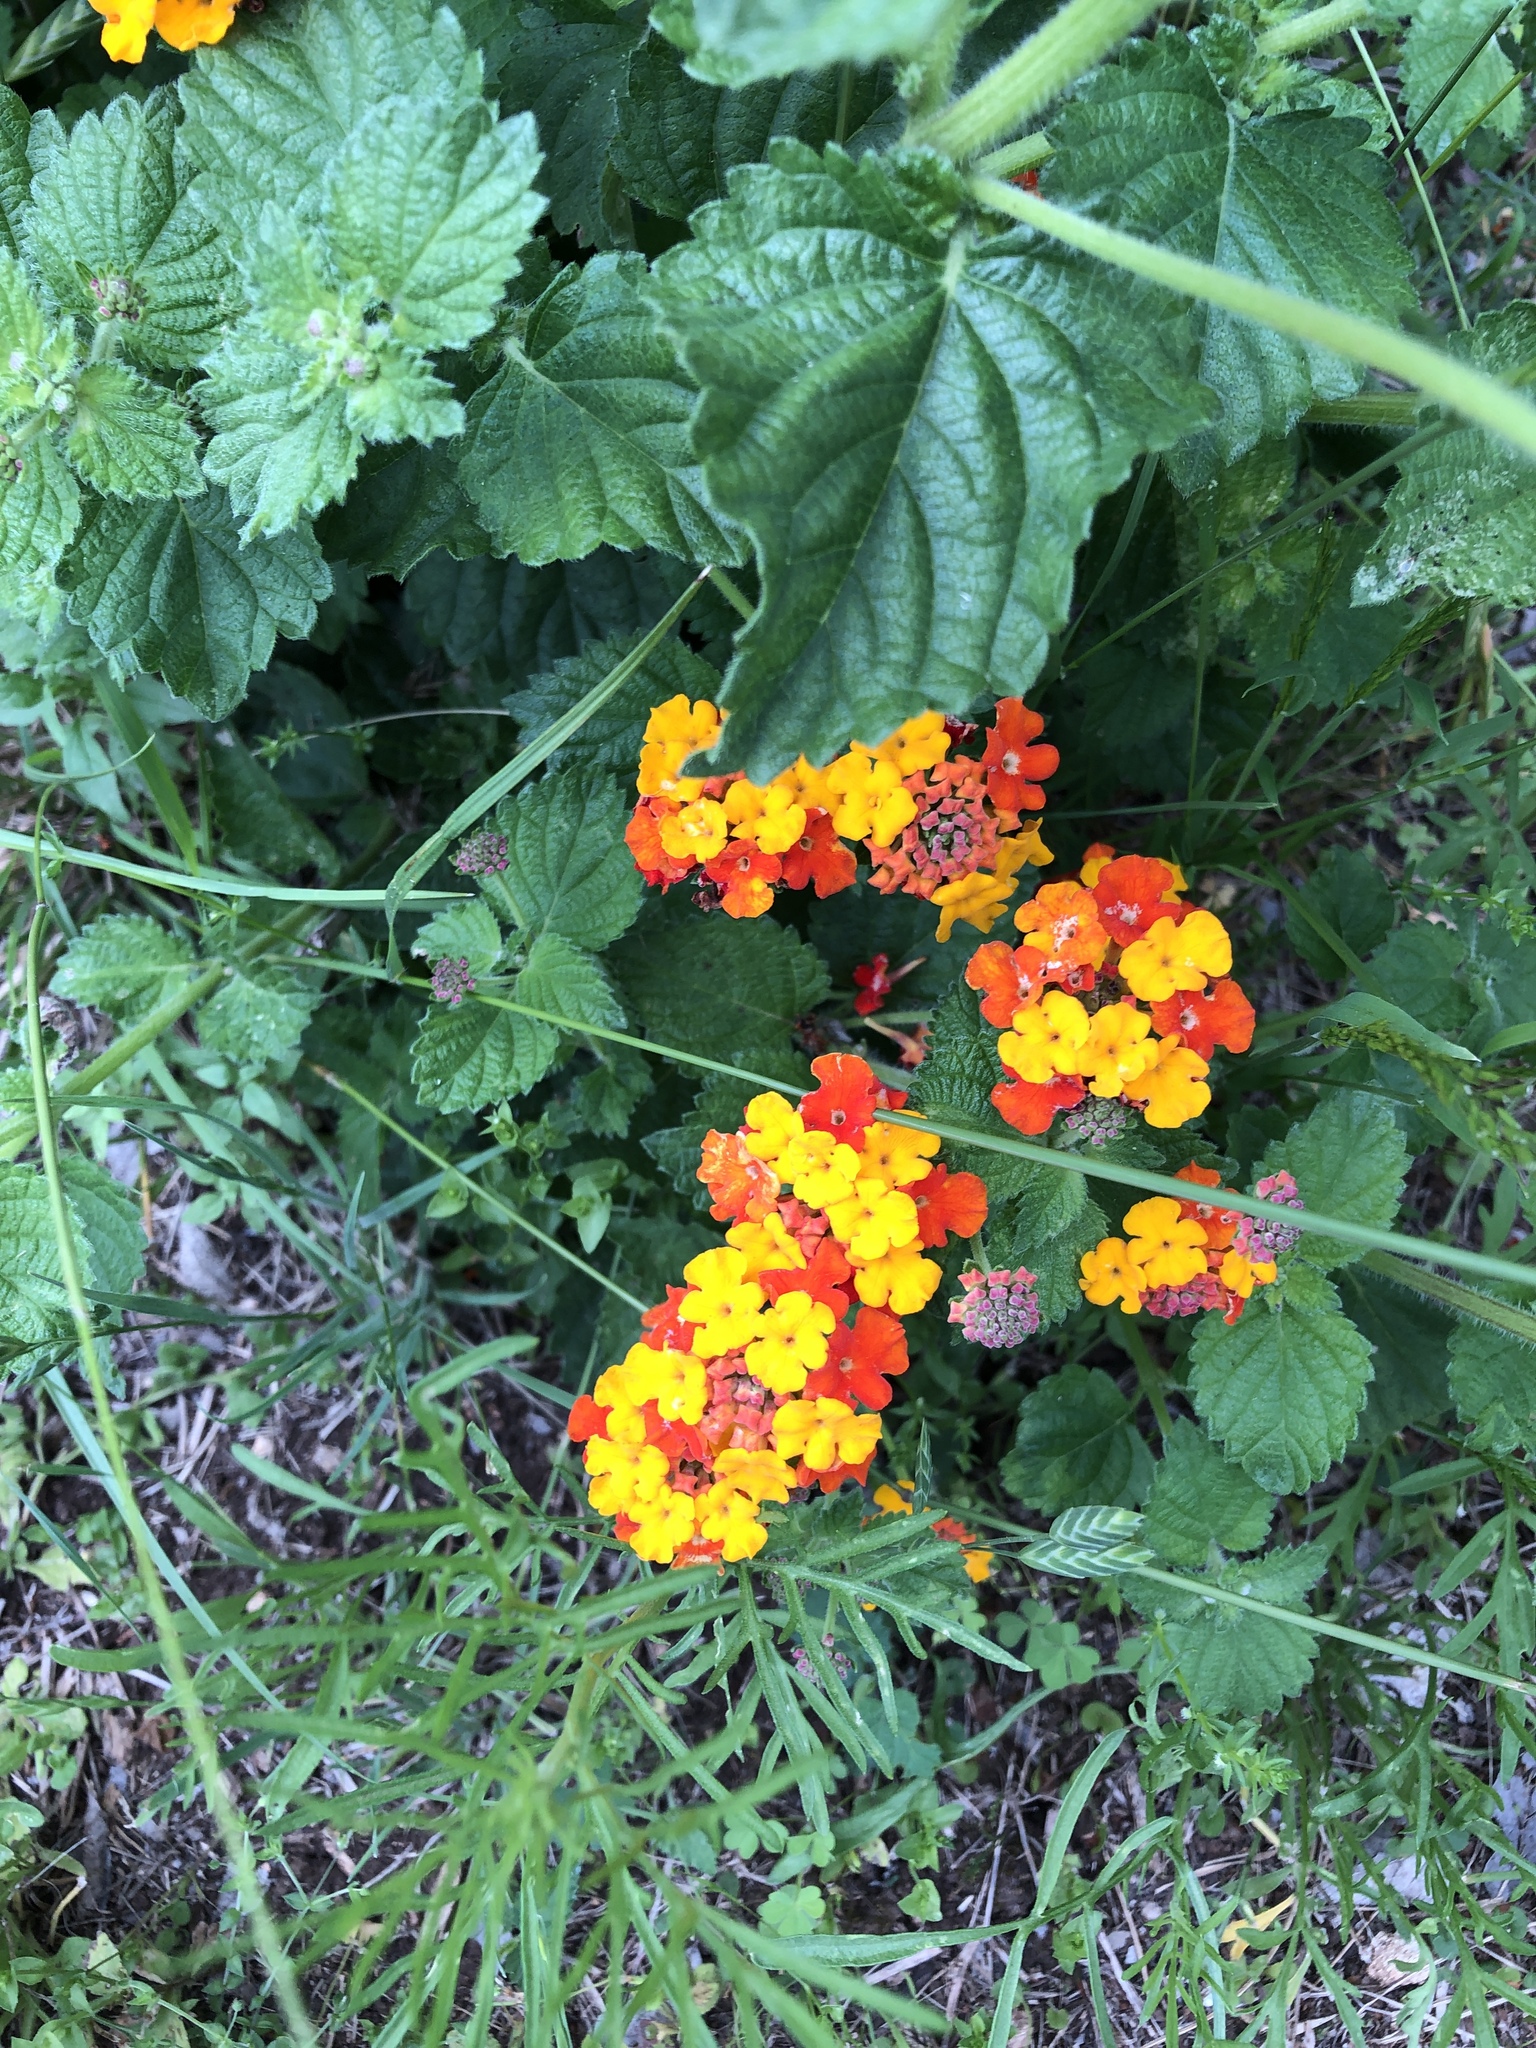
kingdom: Plantae
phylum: Tracheophyta
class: Magnoliopsida
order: Lamiales
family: Verbenaceae
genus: Lantana
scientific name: Lantana camara
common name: Lantana
